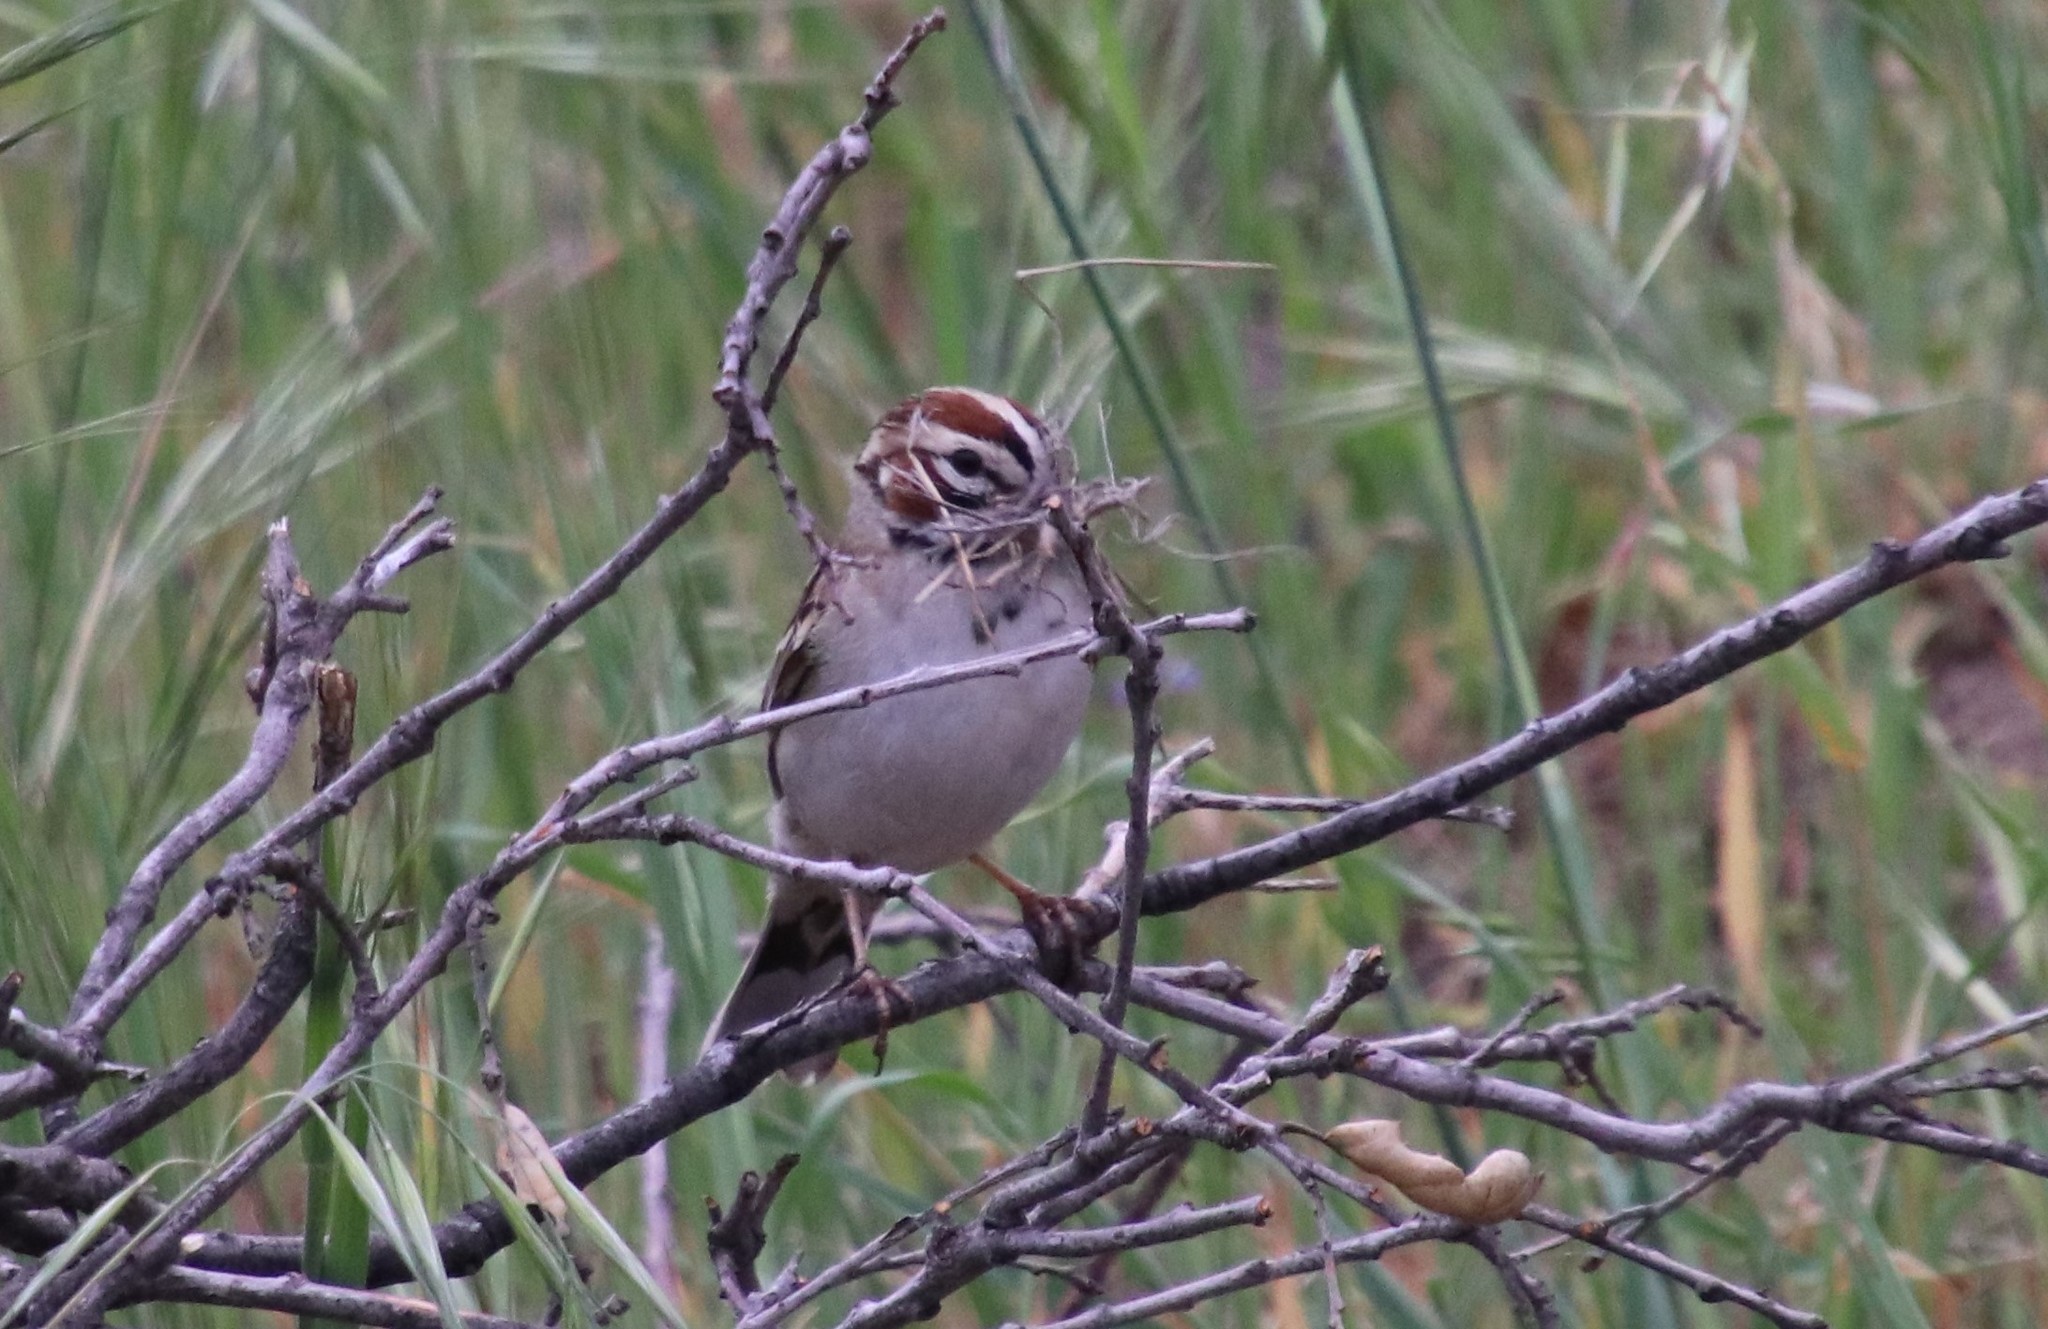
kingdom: Animalia
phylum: Chordata
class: Aves
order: Passeriformes
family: Passerellidae
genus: Chondestes
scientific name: Chondestes grammacus
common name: Lark sparrow
